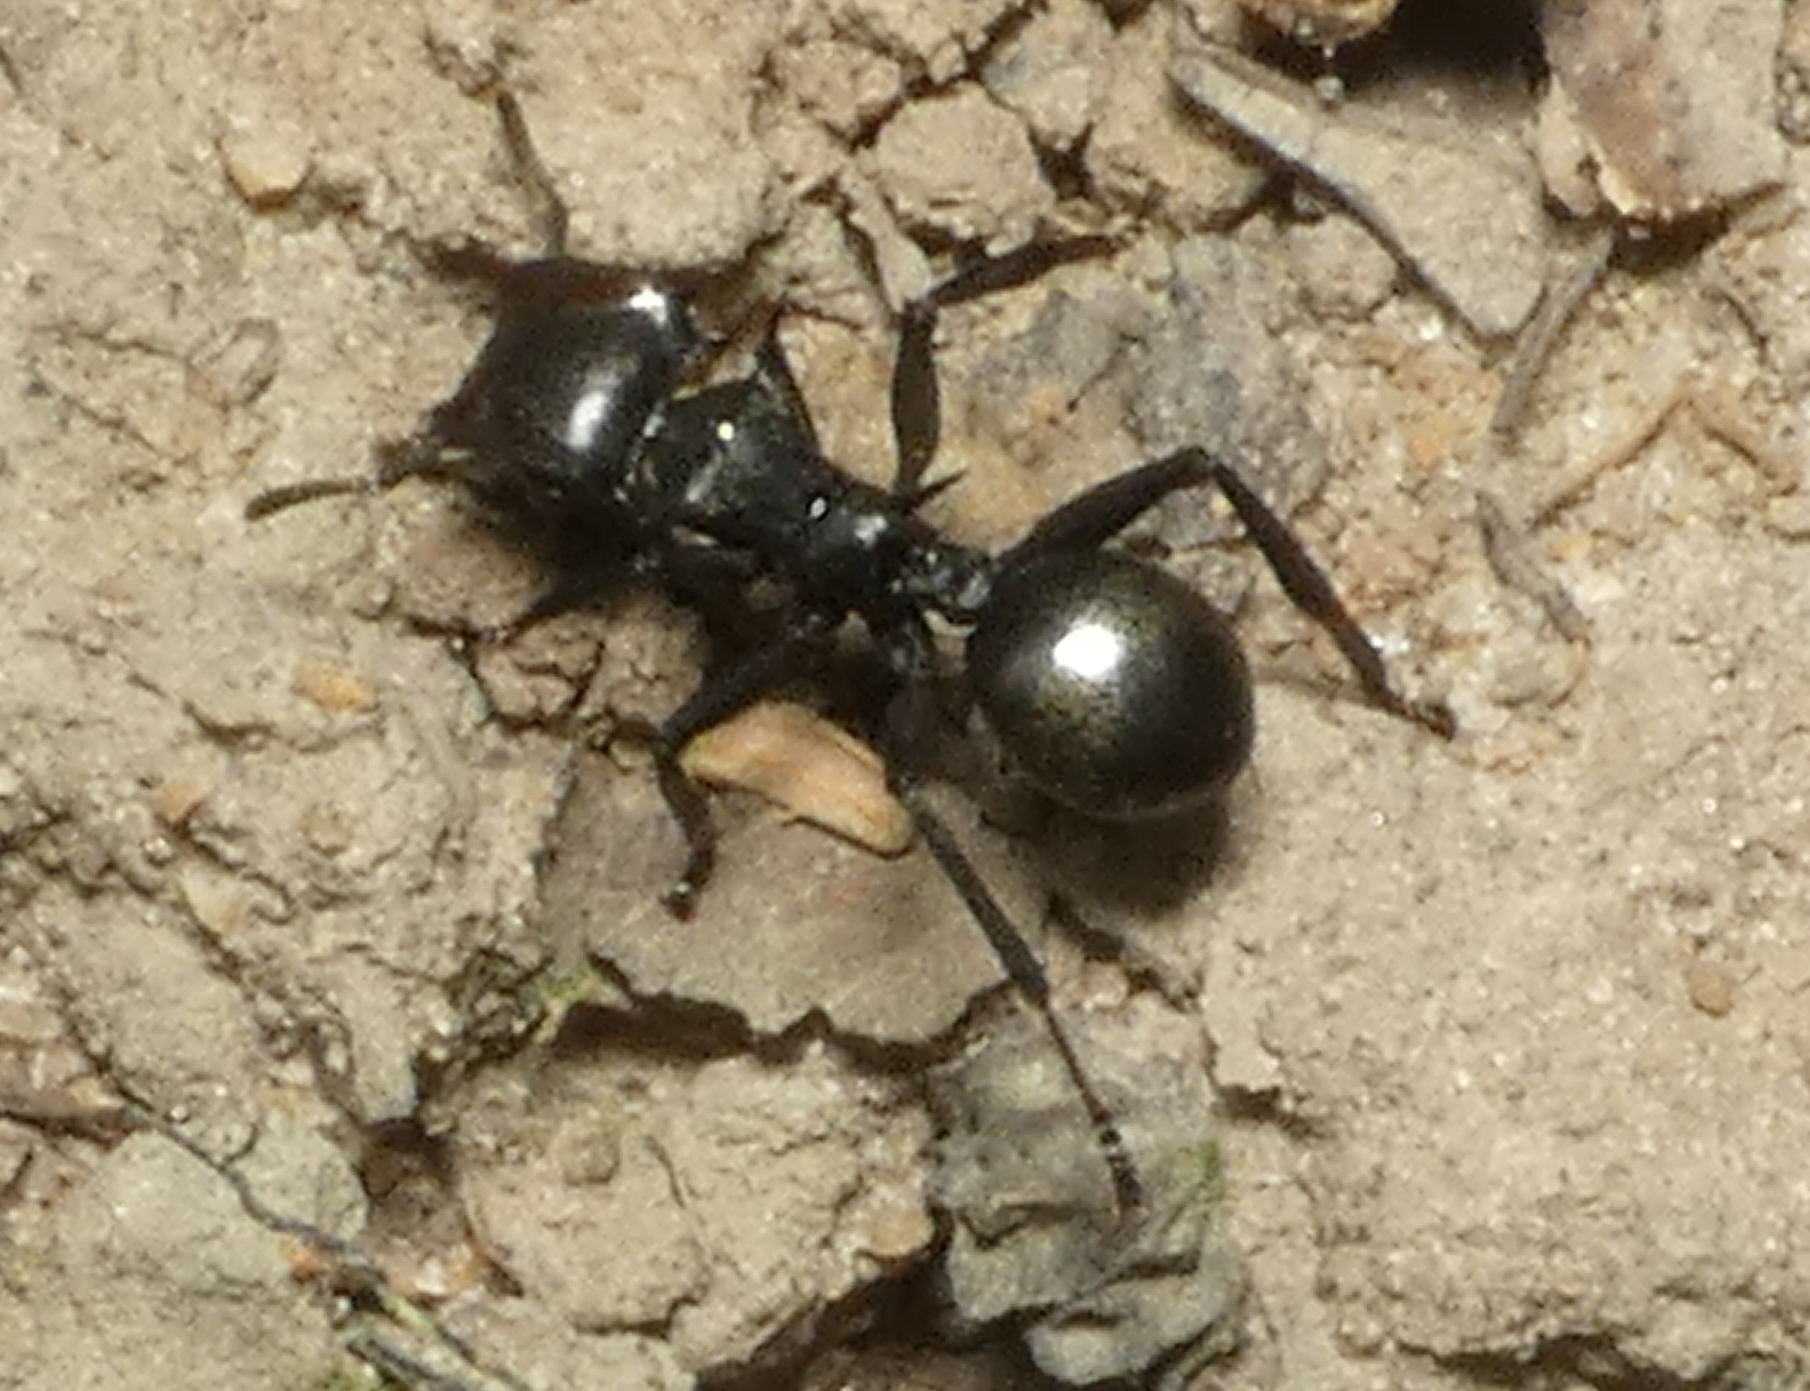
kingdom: Animalia
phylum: Arthropoda
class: Insecta
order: Hymenoptera
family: Formicidae
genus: Cephalotes
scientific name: Cephalotes atratus
